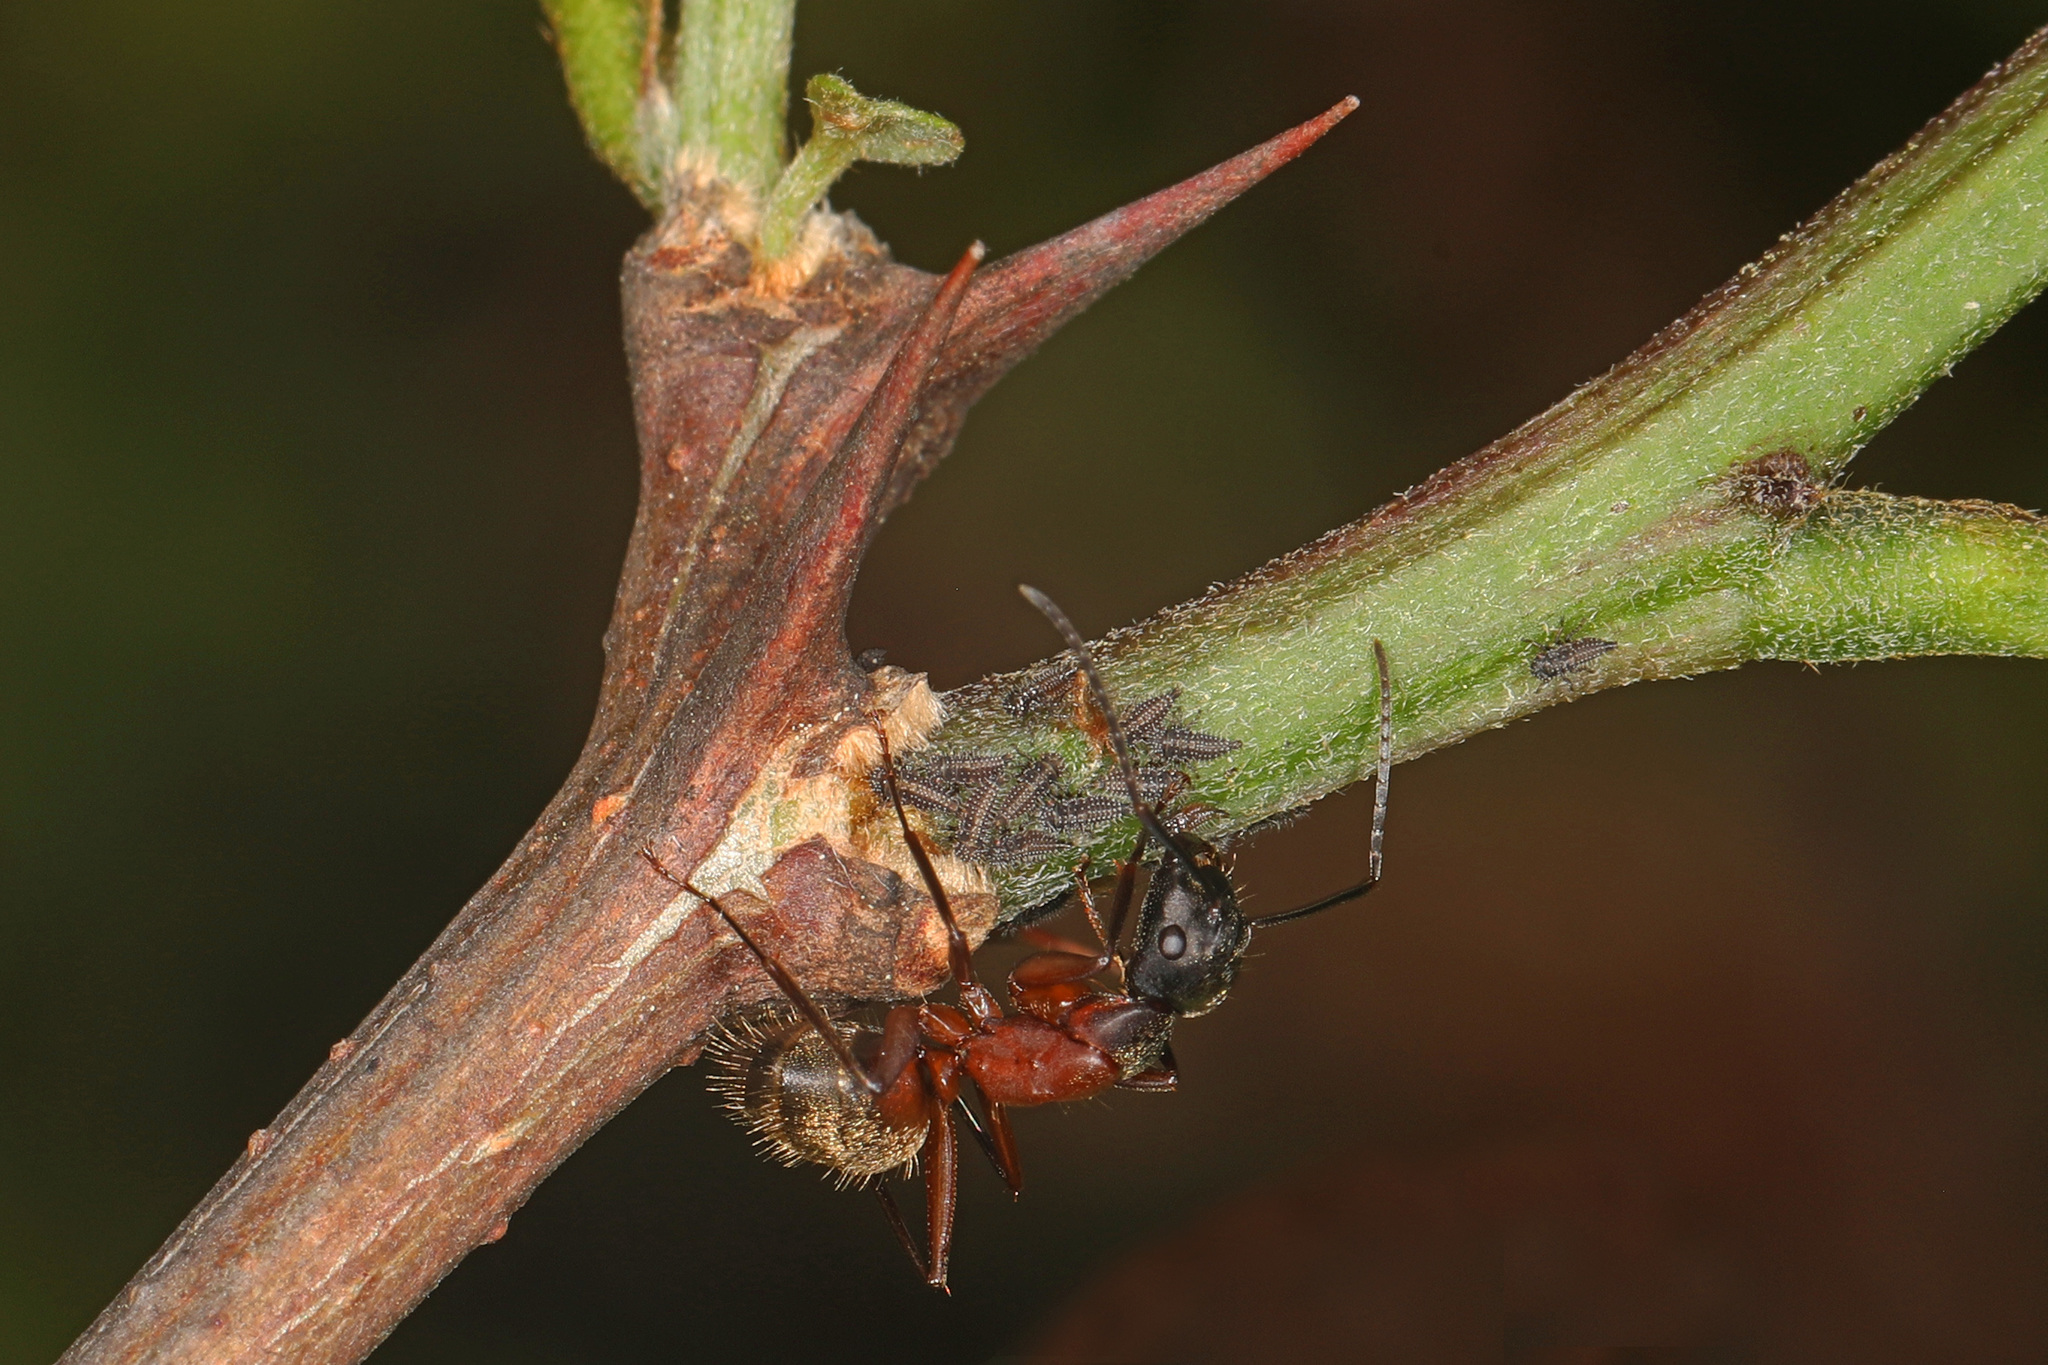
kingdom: Animalia
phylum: Arthropoda
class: Insecta
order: Hymenoptera
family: Formicidae
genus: Camponotus
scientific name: Camponotus chromaiodes
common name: Red carpenter ant
